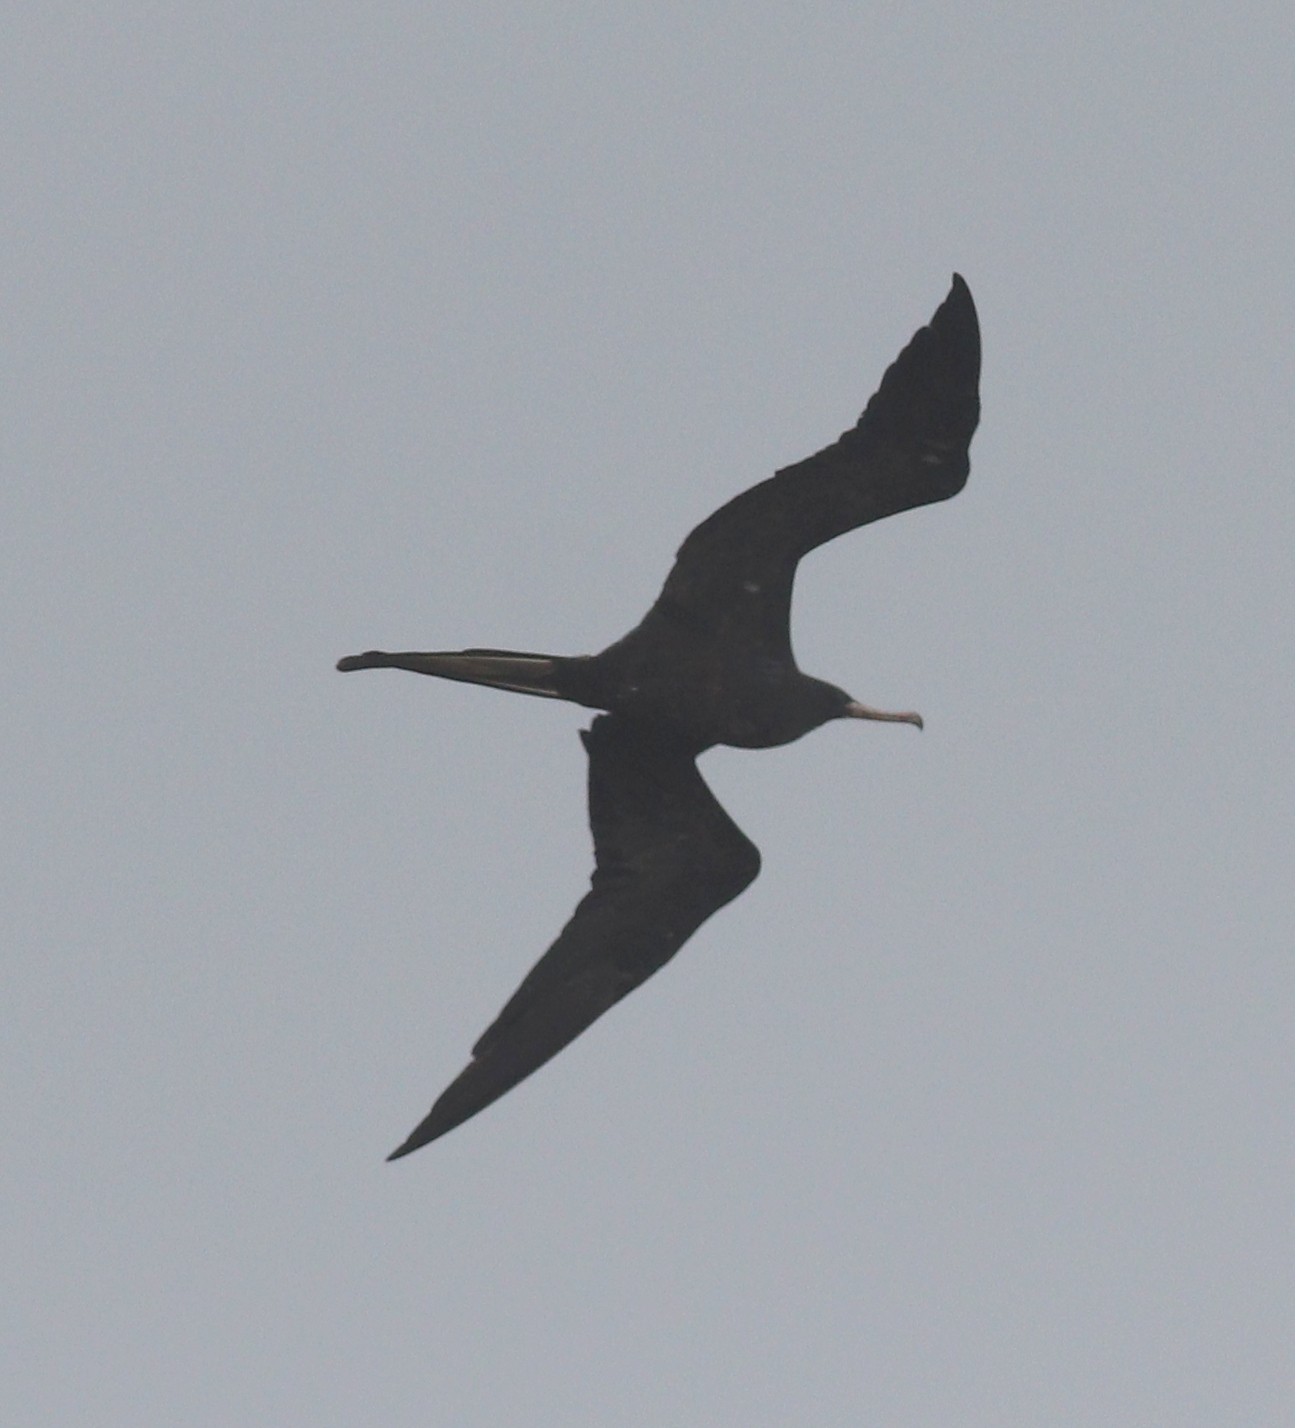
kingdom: Animalia
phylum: Chordata
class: Aves
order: Suliformes
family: Fregatidae
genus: Fregata
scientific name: Fregata magnificens
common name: Magnificent frigatebird
